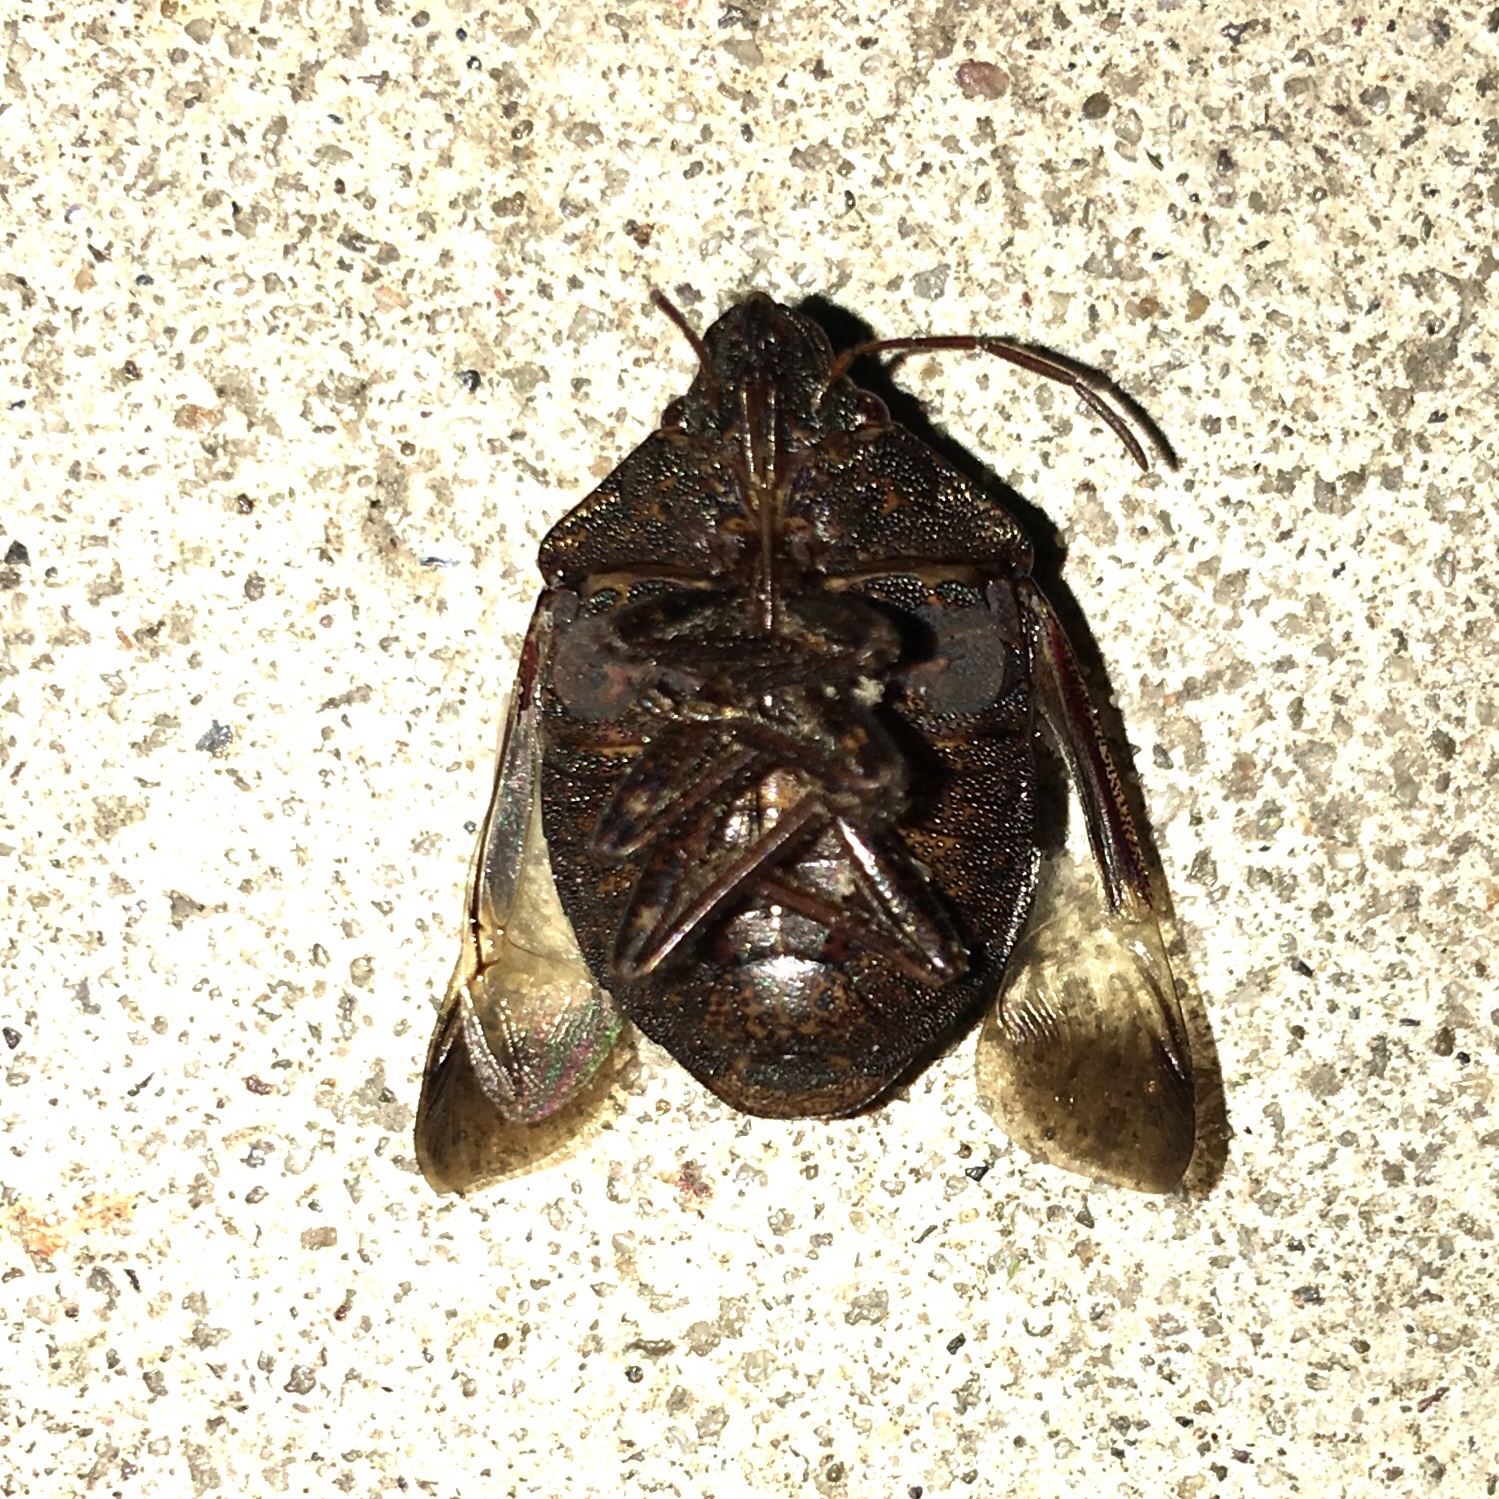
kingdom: Animalia
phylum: Arthropoda
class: Insecta
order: Hemiptera
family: Scutelleridae
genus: Tetyra
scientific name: Tetyra bipunctata
